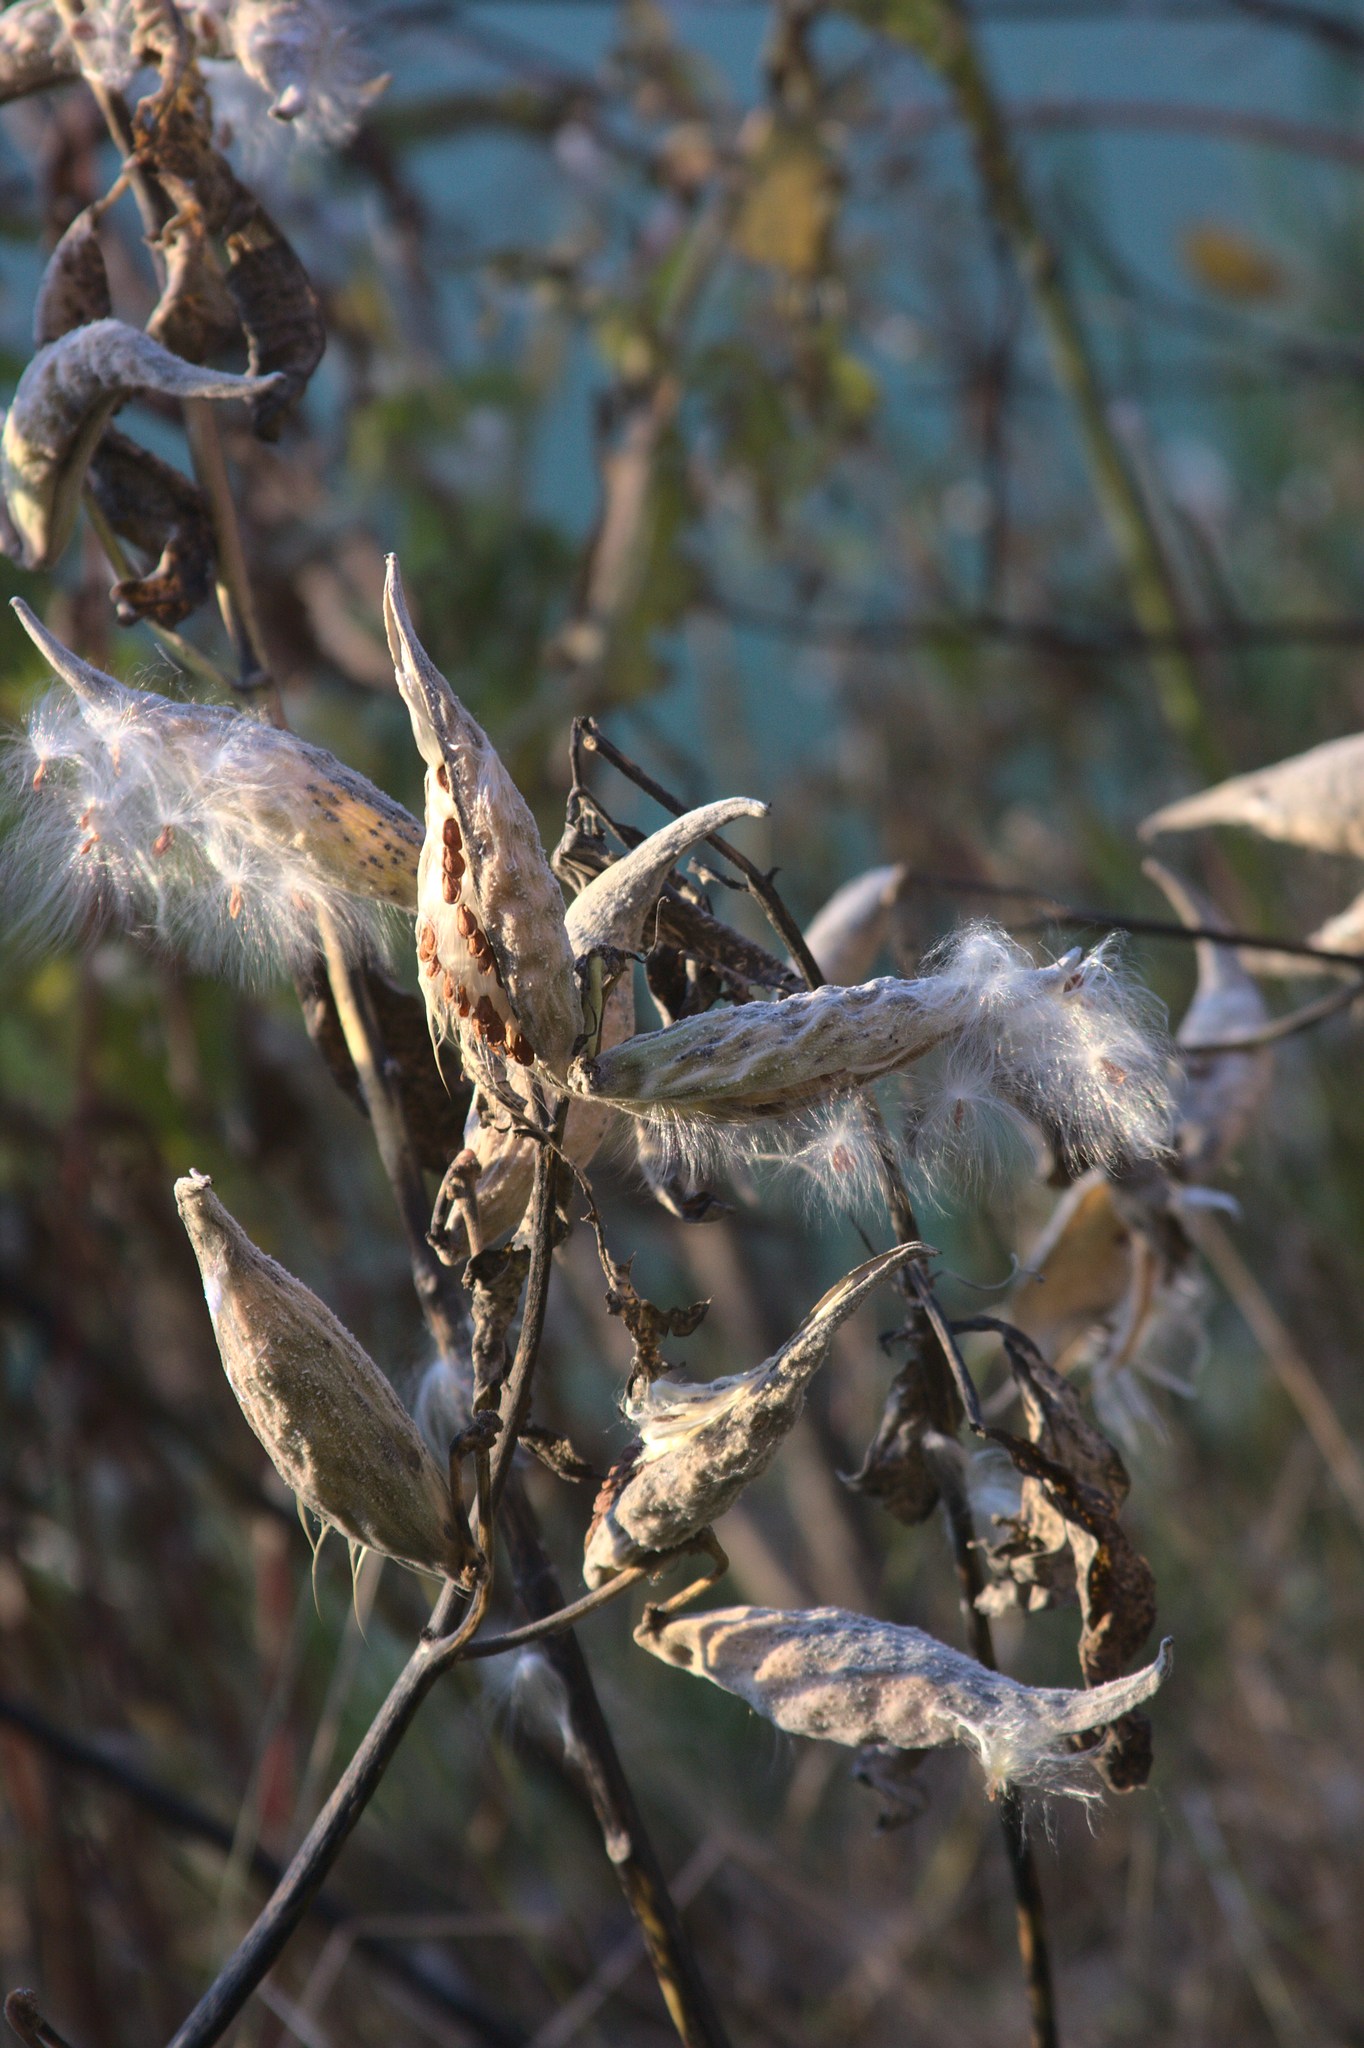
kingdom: Plantae
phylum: Tracheophyta
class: Magnoliopsida
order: Gentianales
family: Apocynaceae
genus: Asclepias
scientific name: Asclepias syriaca
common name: Common milkweed
